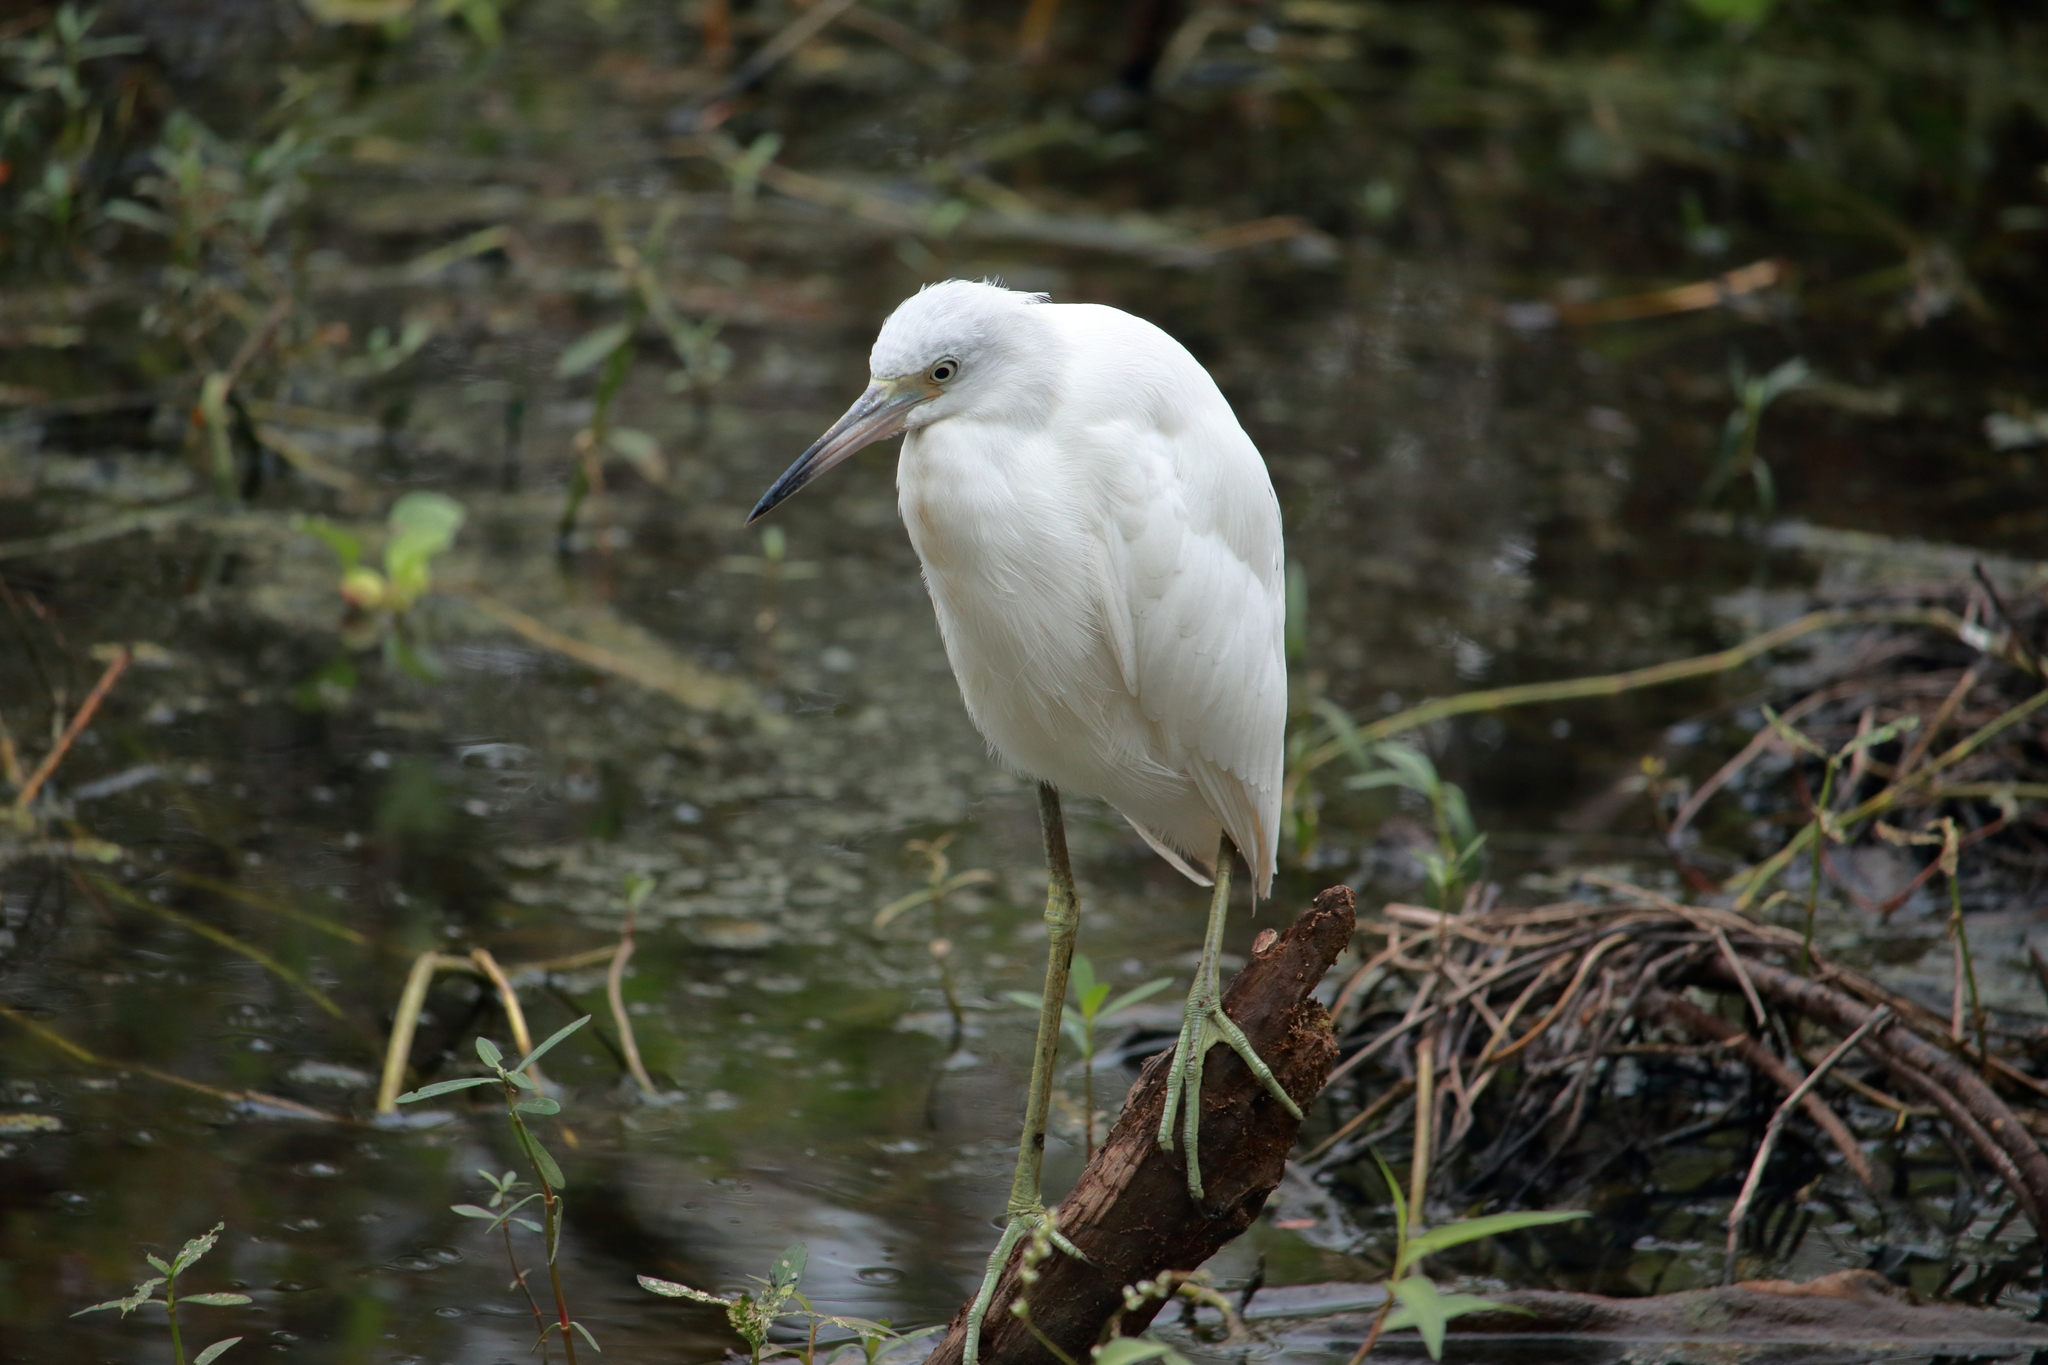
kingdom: Animalia
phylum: Chordata
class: Aves
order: Pelecaniformes
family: Ardeidae
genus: Egretta
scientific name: Egretta caerulea
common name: Little blue heron
